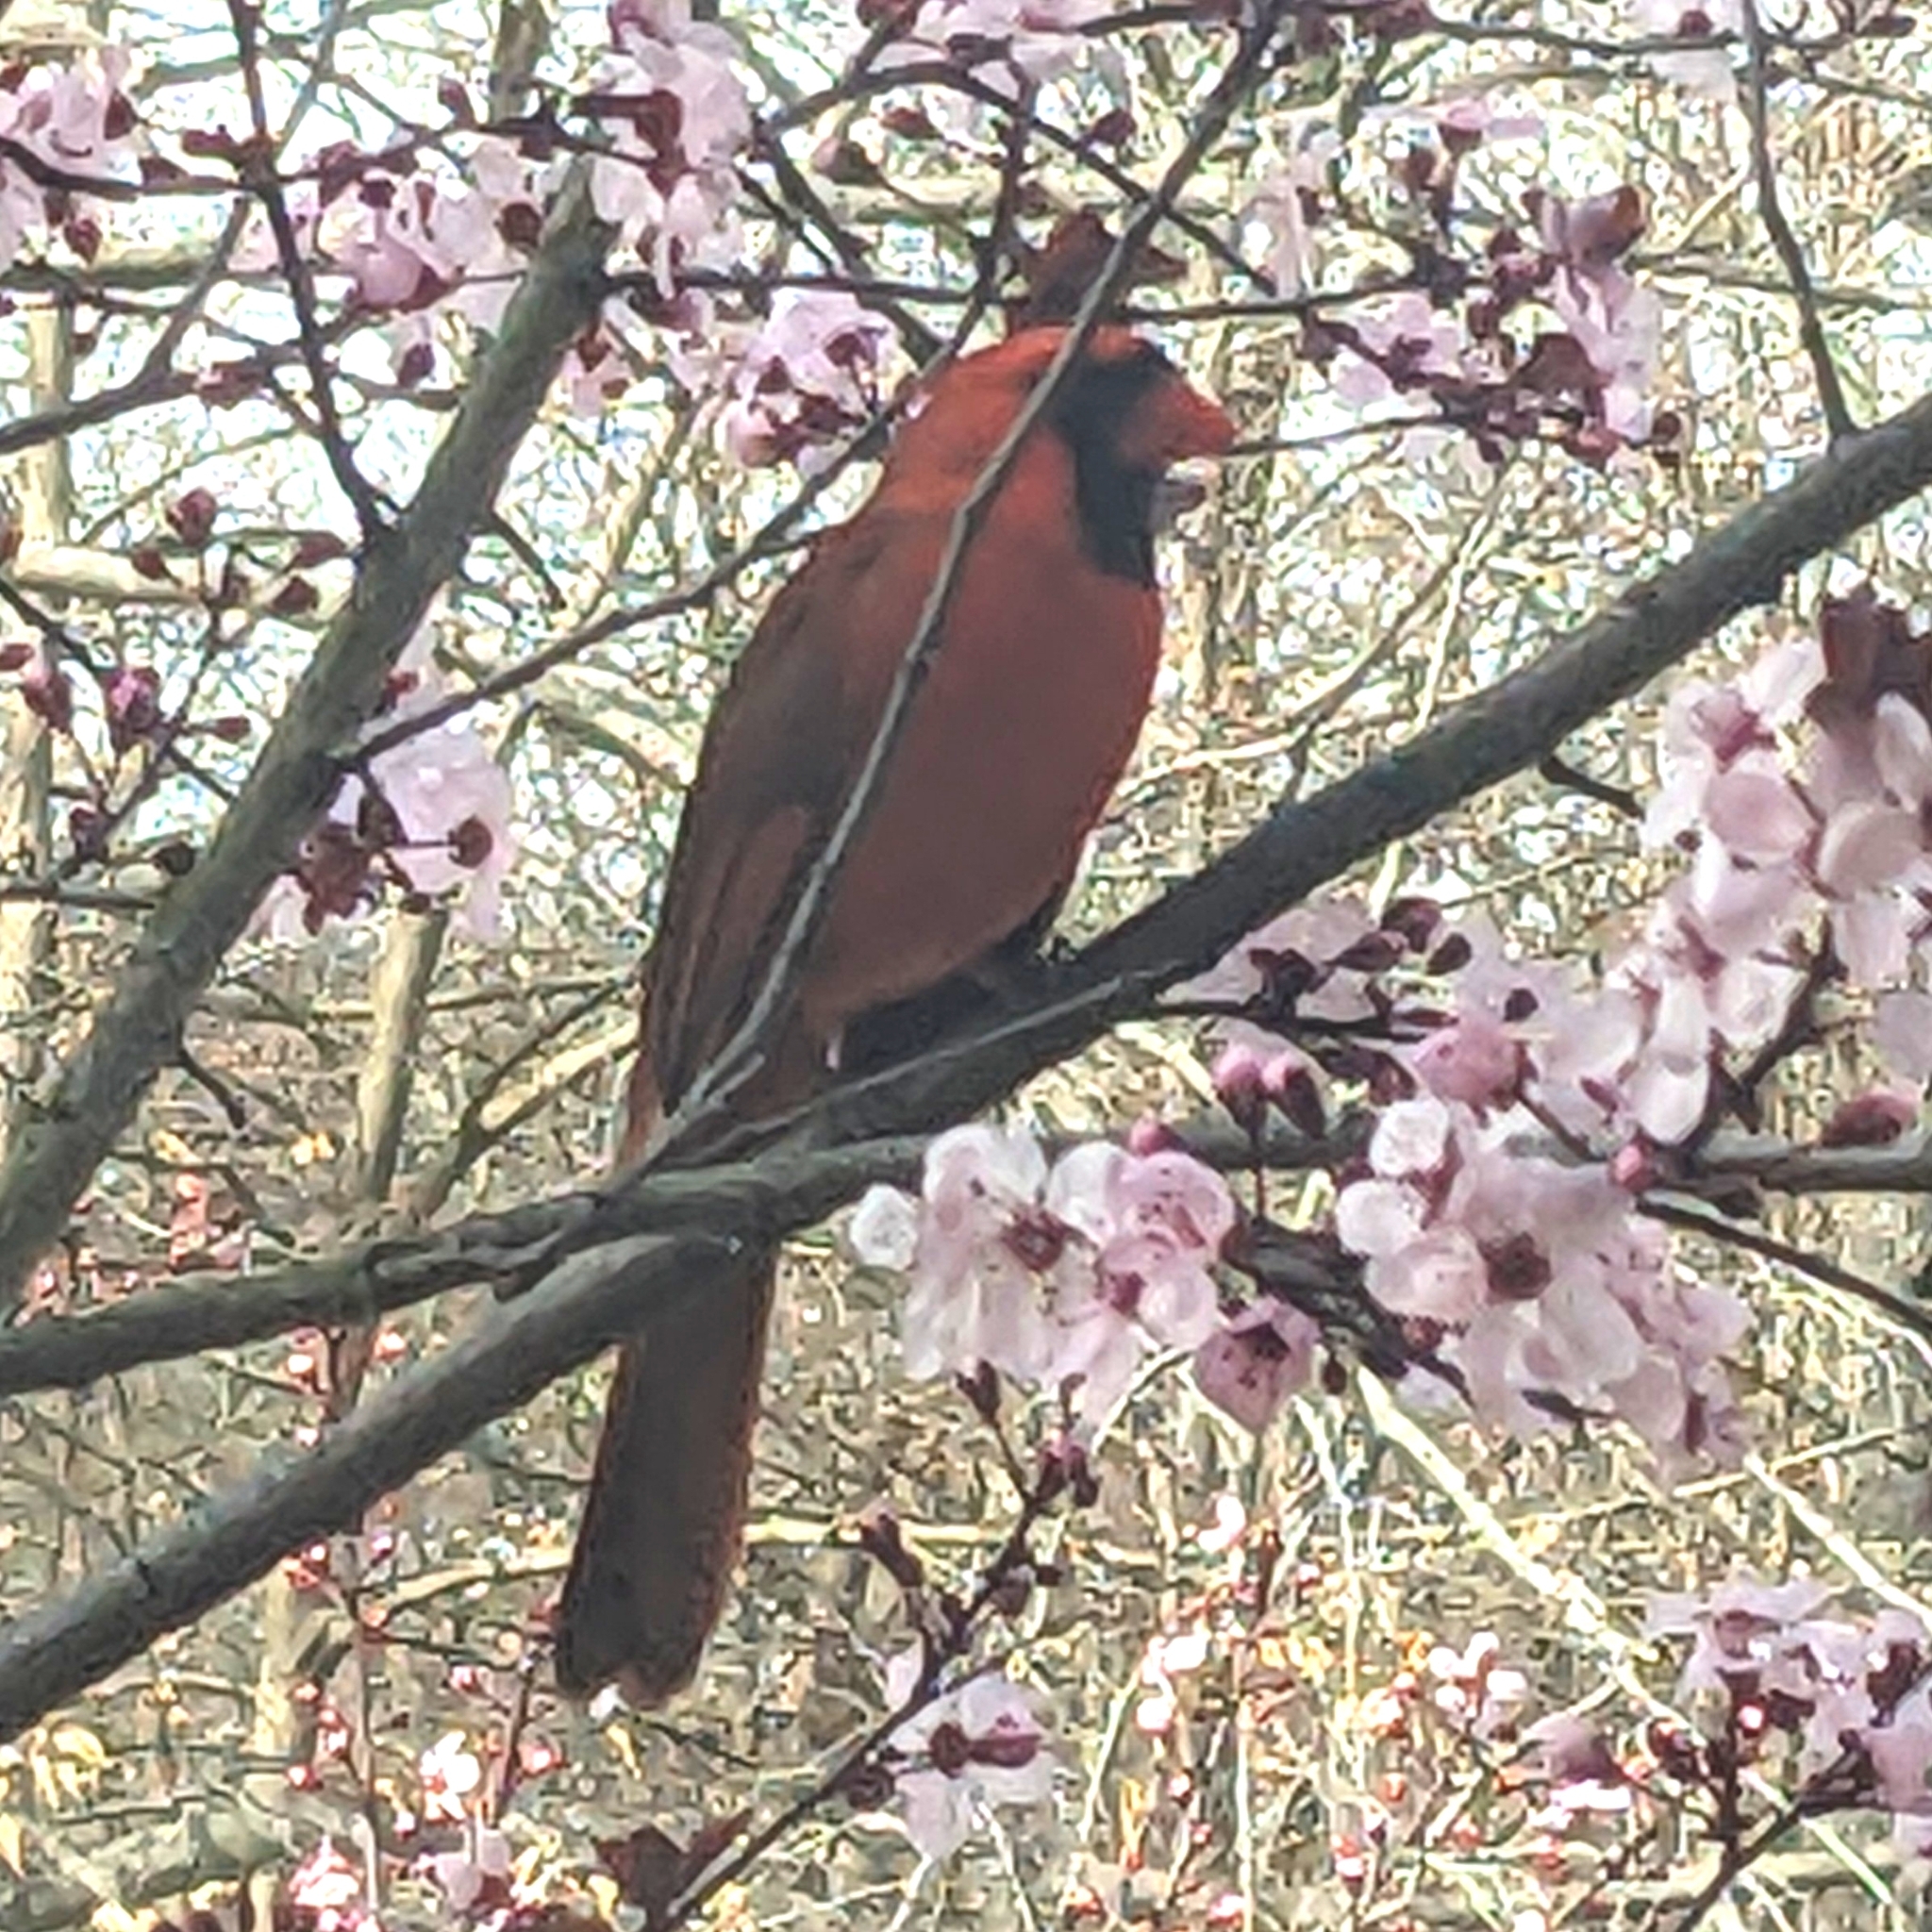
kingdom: Animalia
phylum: Chordata
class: Aves
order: Passeriformes
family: Cardinalidae
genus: Cardinalis
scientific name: Cardinalis cardinalis
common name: Northern cardinal
